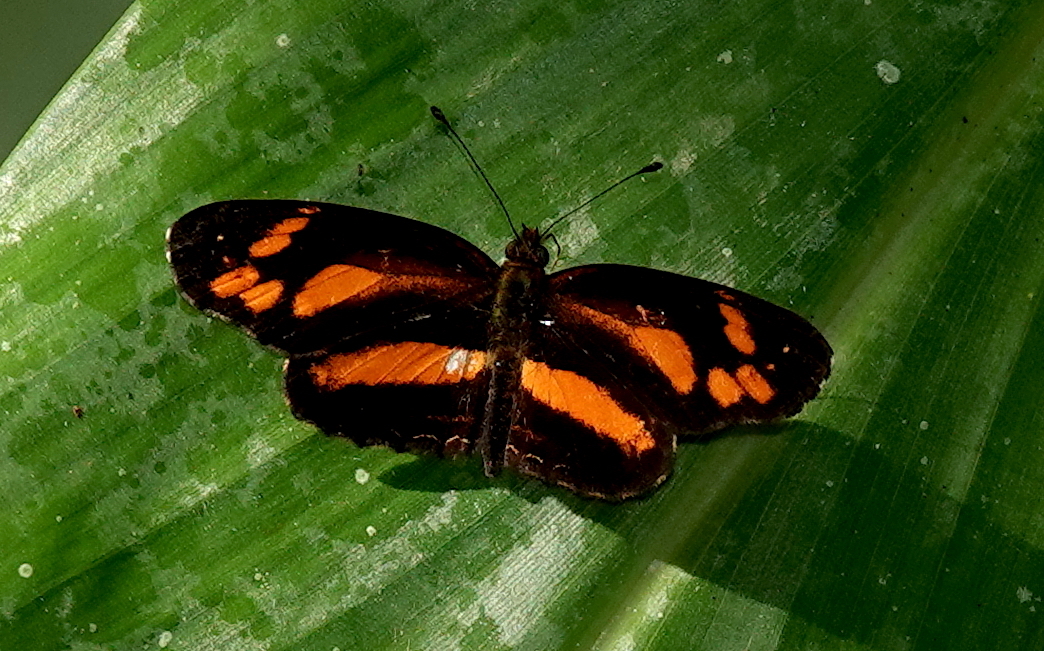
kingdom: Animalia
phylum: Arthropoda
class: Insecta
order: Lepidoptera
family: Nymphalidae
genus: Castilia
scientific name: Castilia eranites
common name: Smudged crescent
